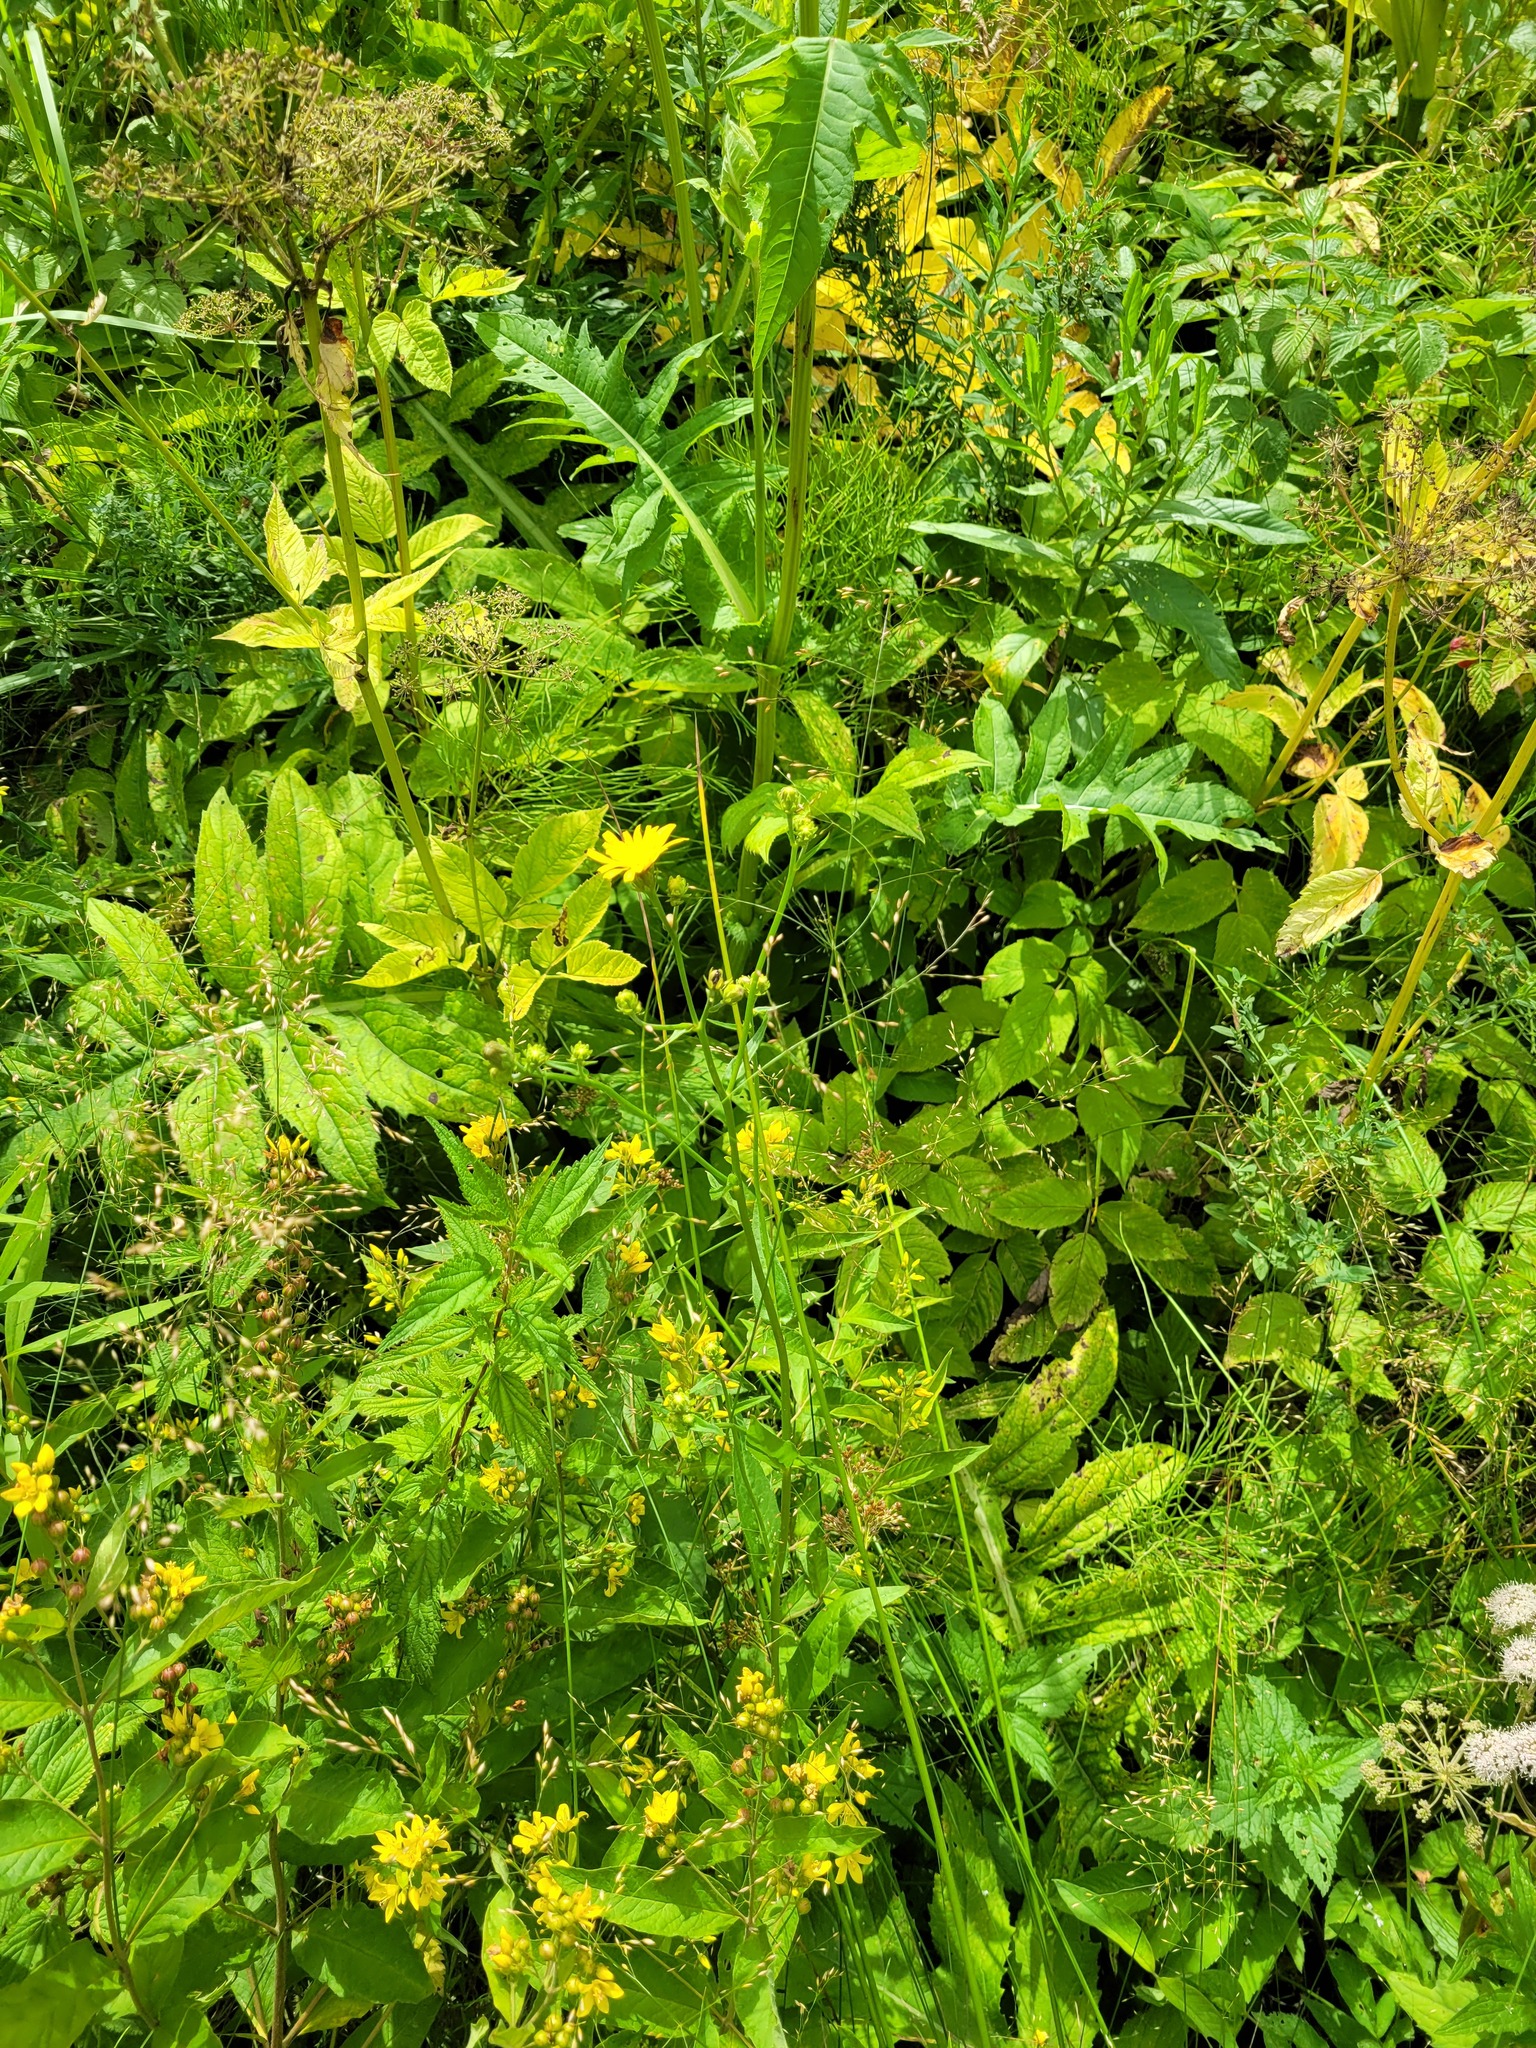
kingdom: Plantae
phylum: Tracheophyta
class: Magnoliopsida
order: Asterales
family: Asteraceae
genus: Cirsium
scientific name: Cirsium oleraceum
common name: Cabbage thistle
